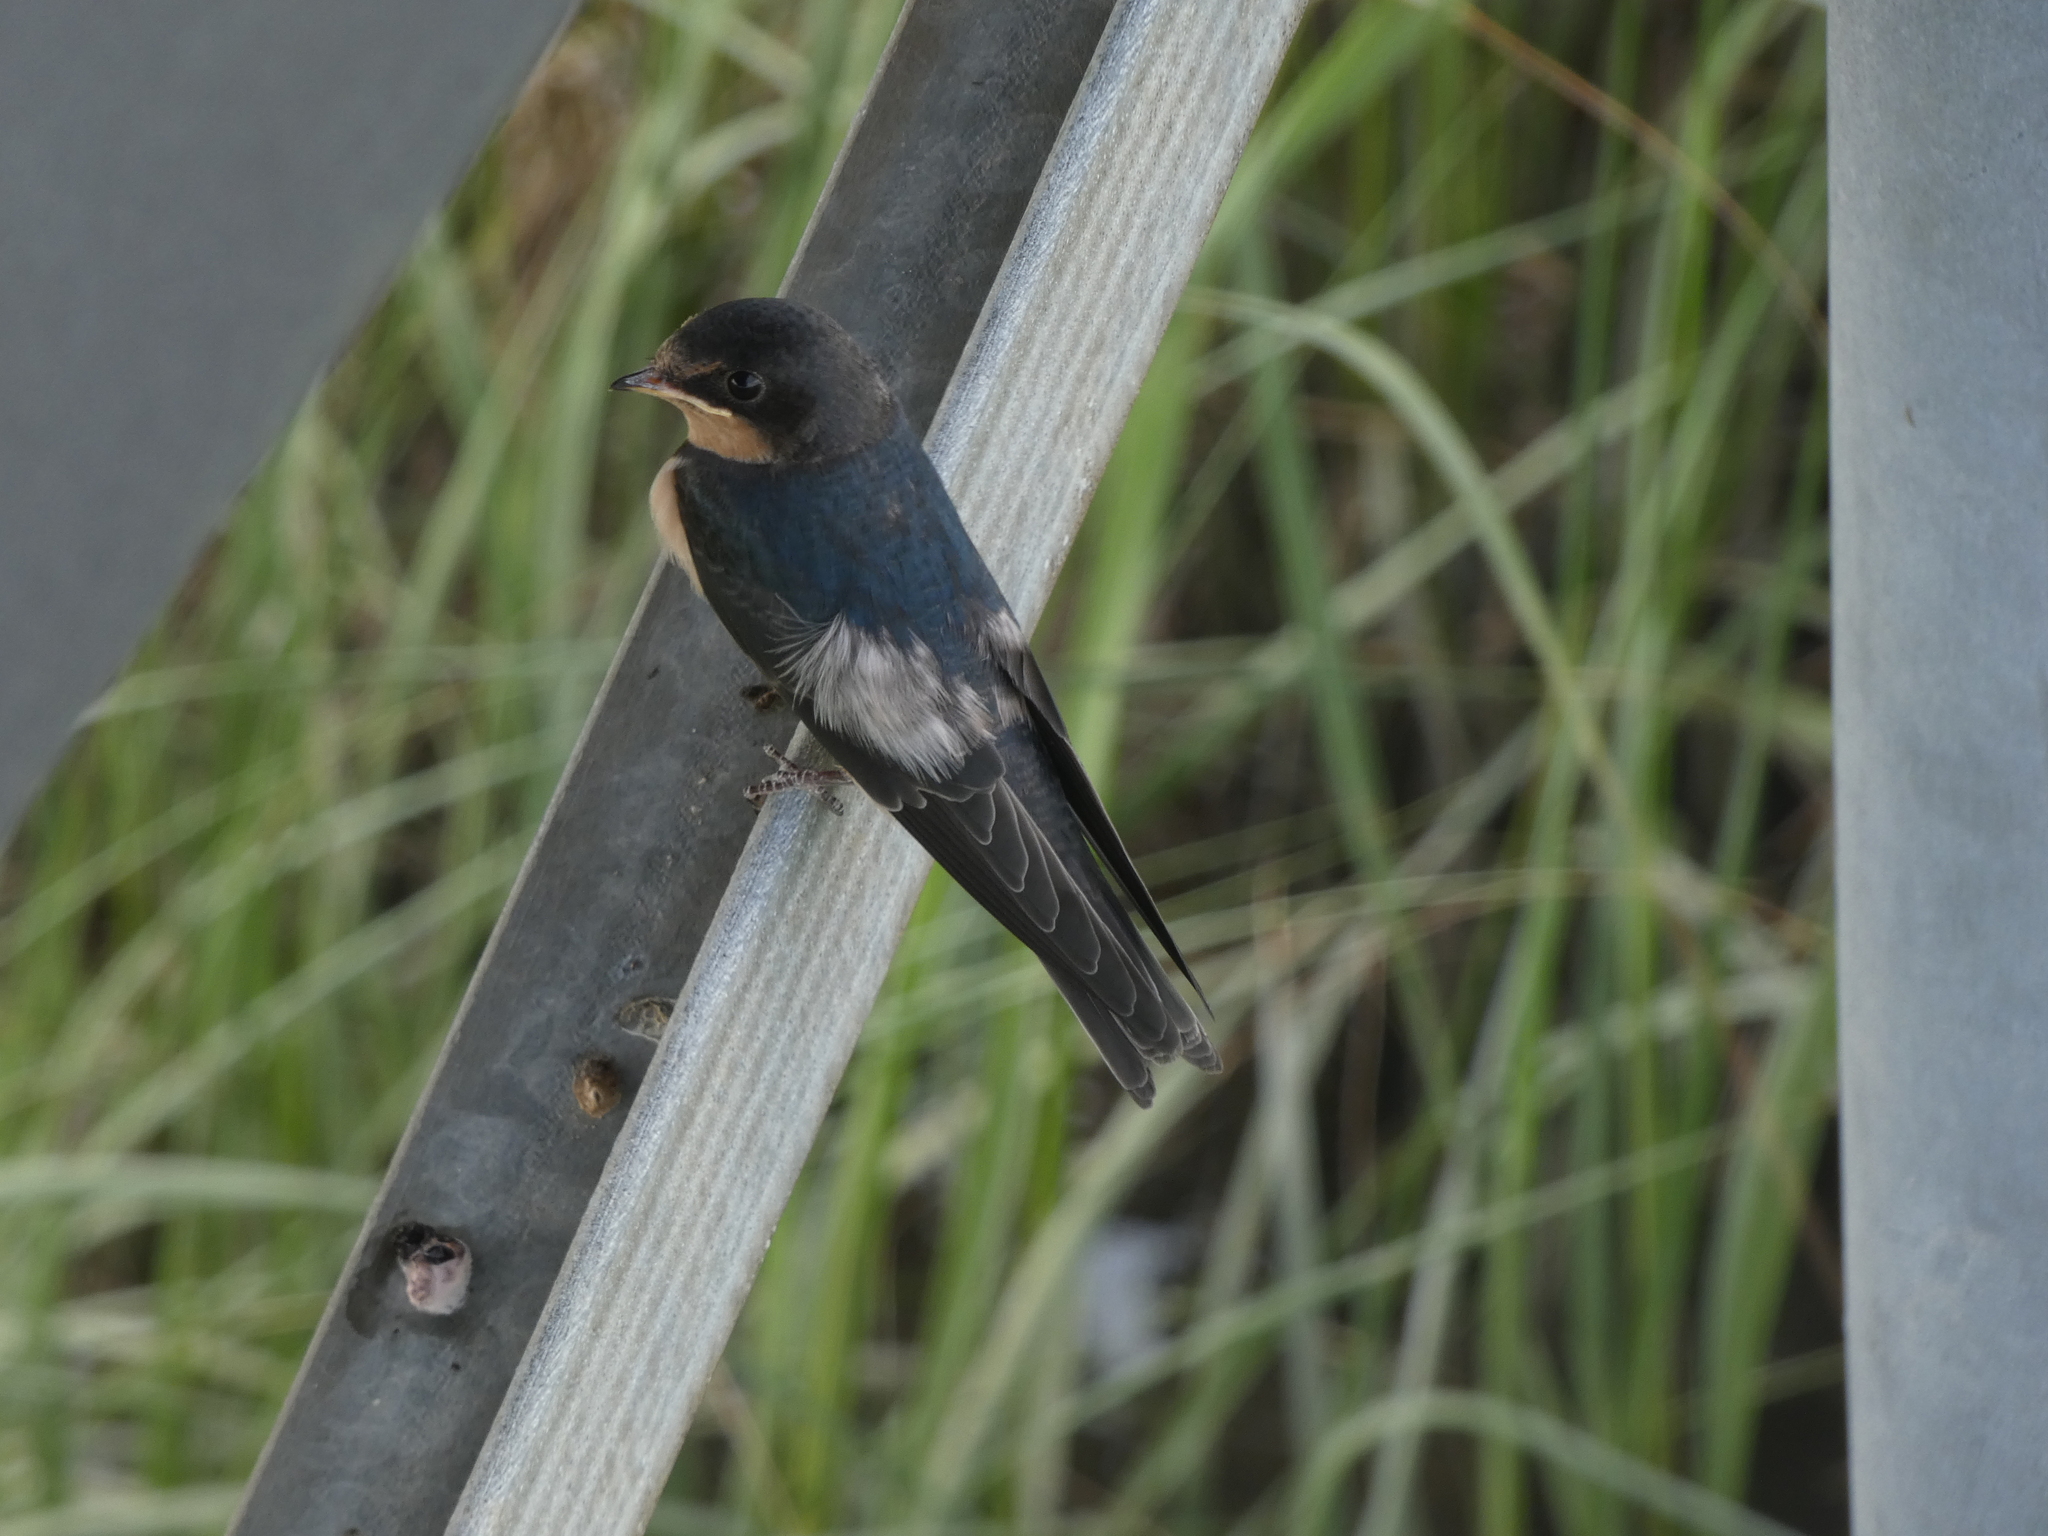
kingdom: Animalia
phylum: Chordata
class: Aves
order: Passeriformes
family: Hirundinidae
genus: Hirundo
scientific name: Hirundo rustica
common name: Barn swallow
